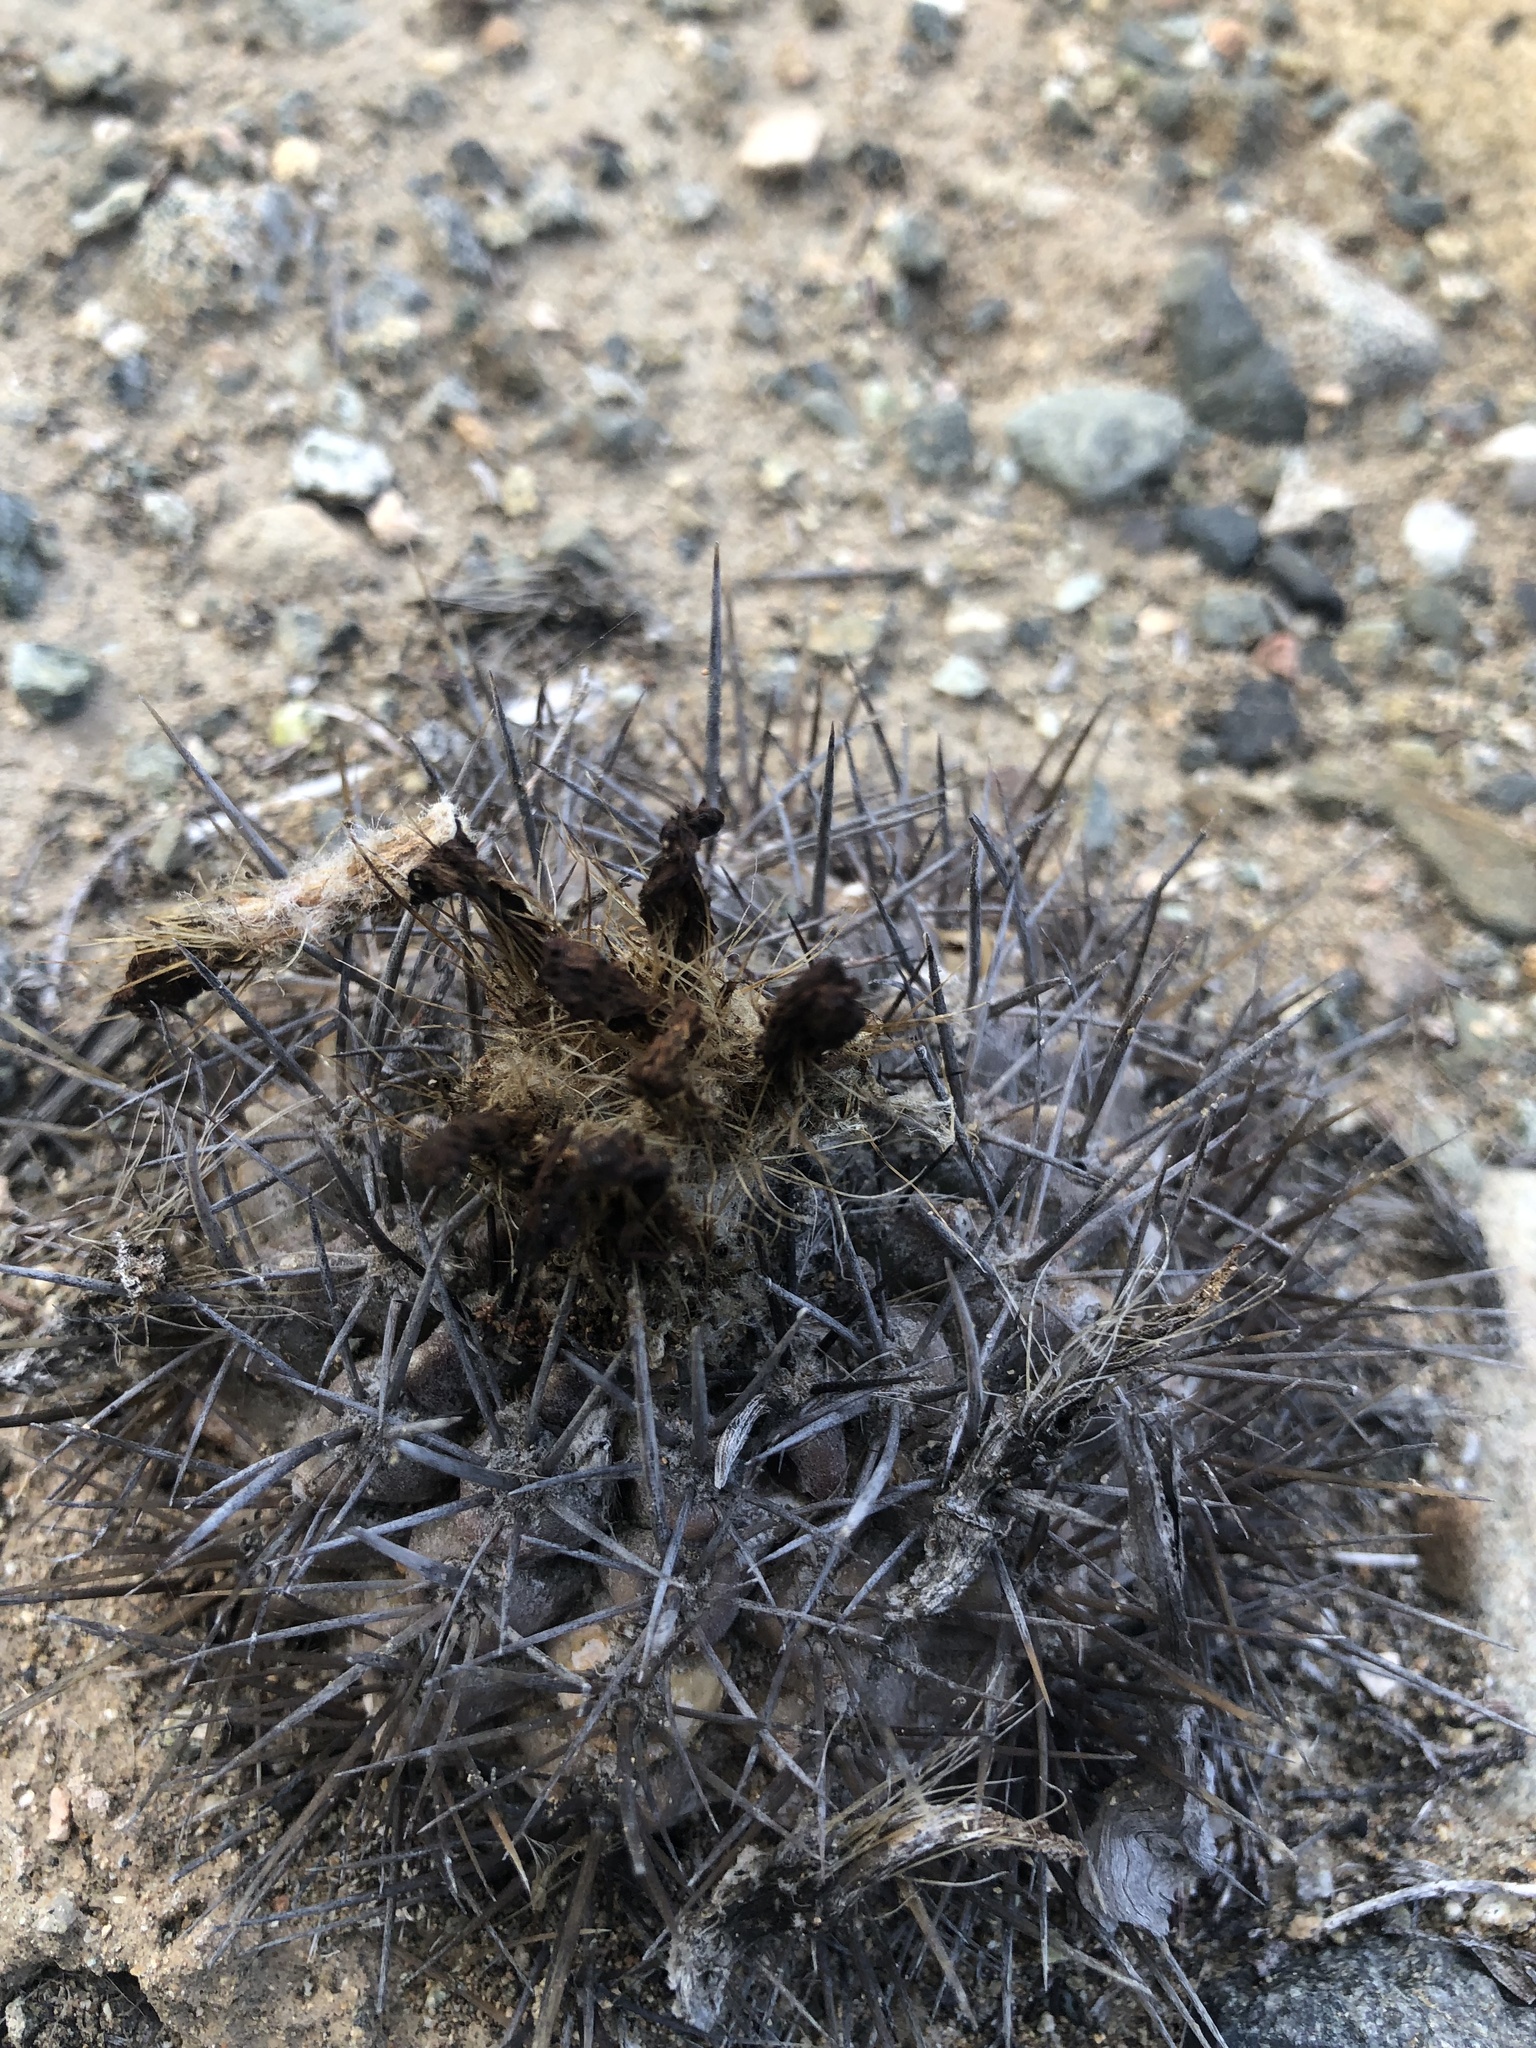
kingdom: Plantae
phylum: Tracheophyta
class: Magnoliopsida
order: Caryophyllales
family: Cactaceae
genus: Eriosyce
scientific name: Eriosyce heinrichiana
